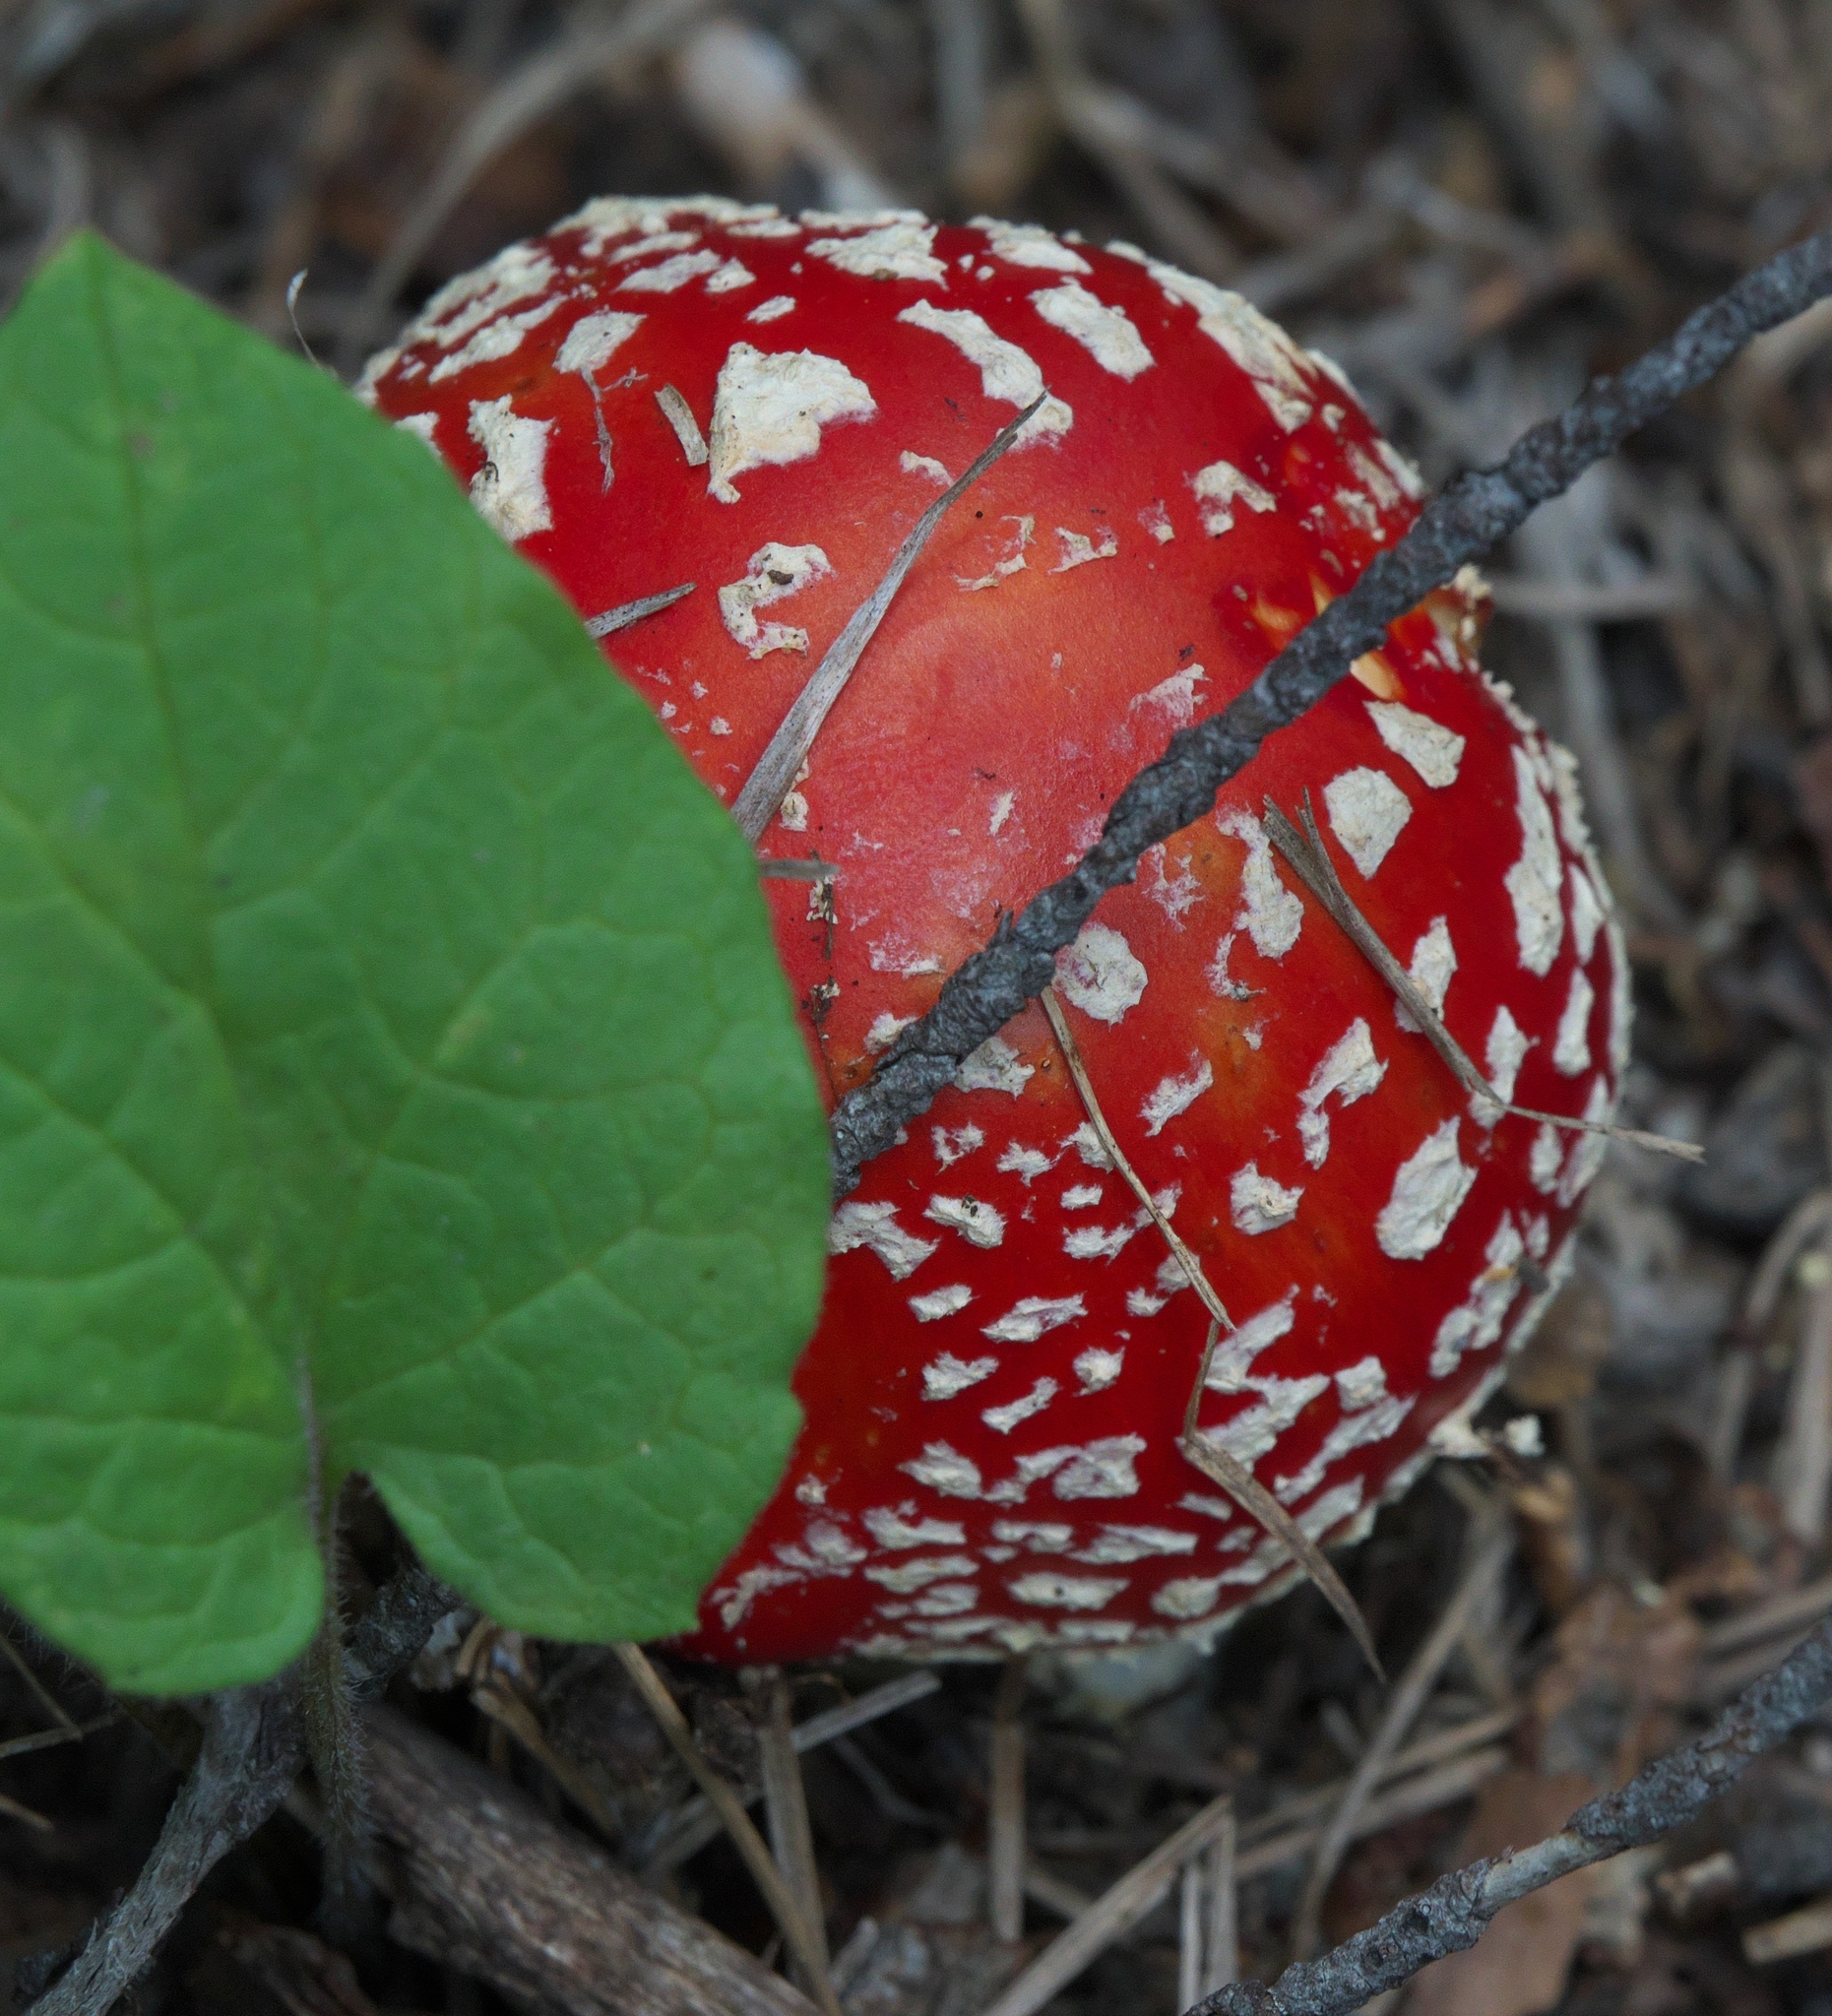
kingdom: Fungi
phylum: Basidiomycota
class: Agaricomycetes
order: Agaricales
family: Amanitaceae
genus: Amanita
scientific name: Amanita muscaria
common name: Fly agaric
